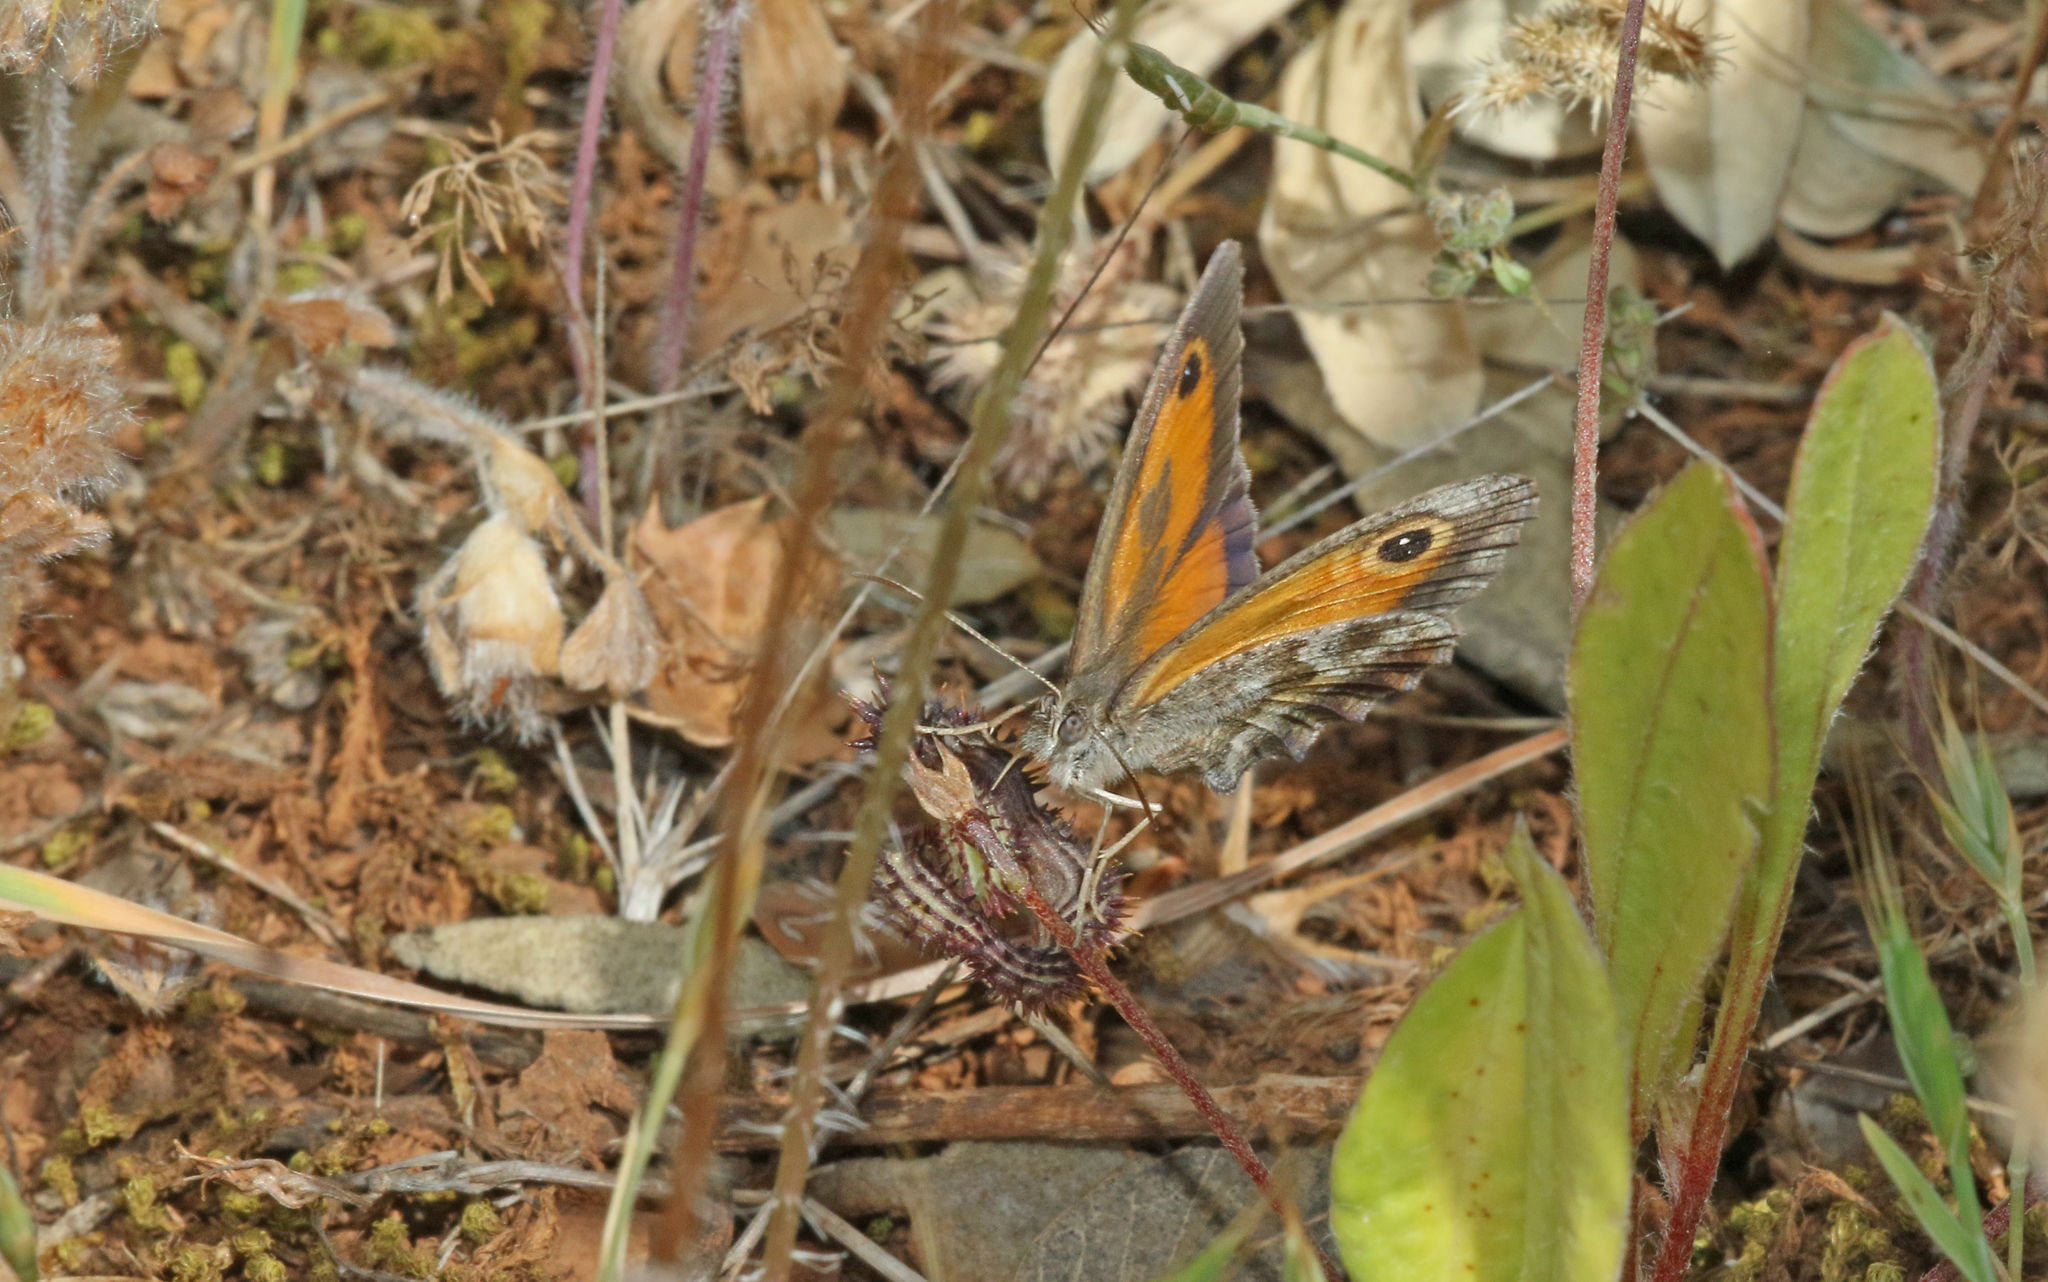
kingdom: Animalia
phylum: Arthropoda
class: Insecta
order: Lepidoptera
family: Nymphalidae
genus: Pyronia
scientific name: Pyronia cecilia
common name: Southern gatekeeper
